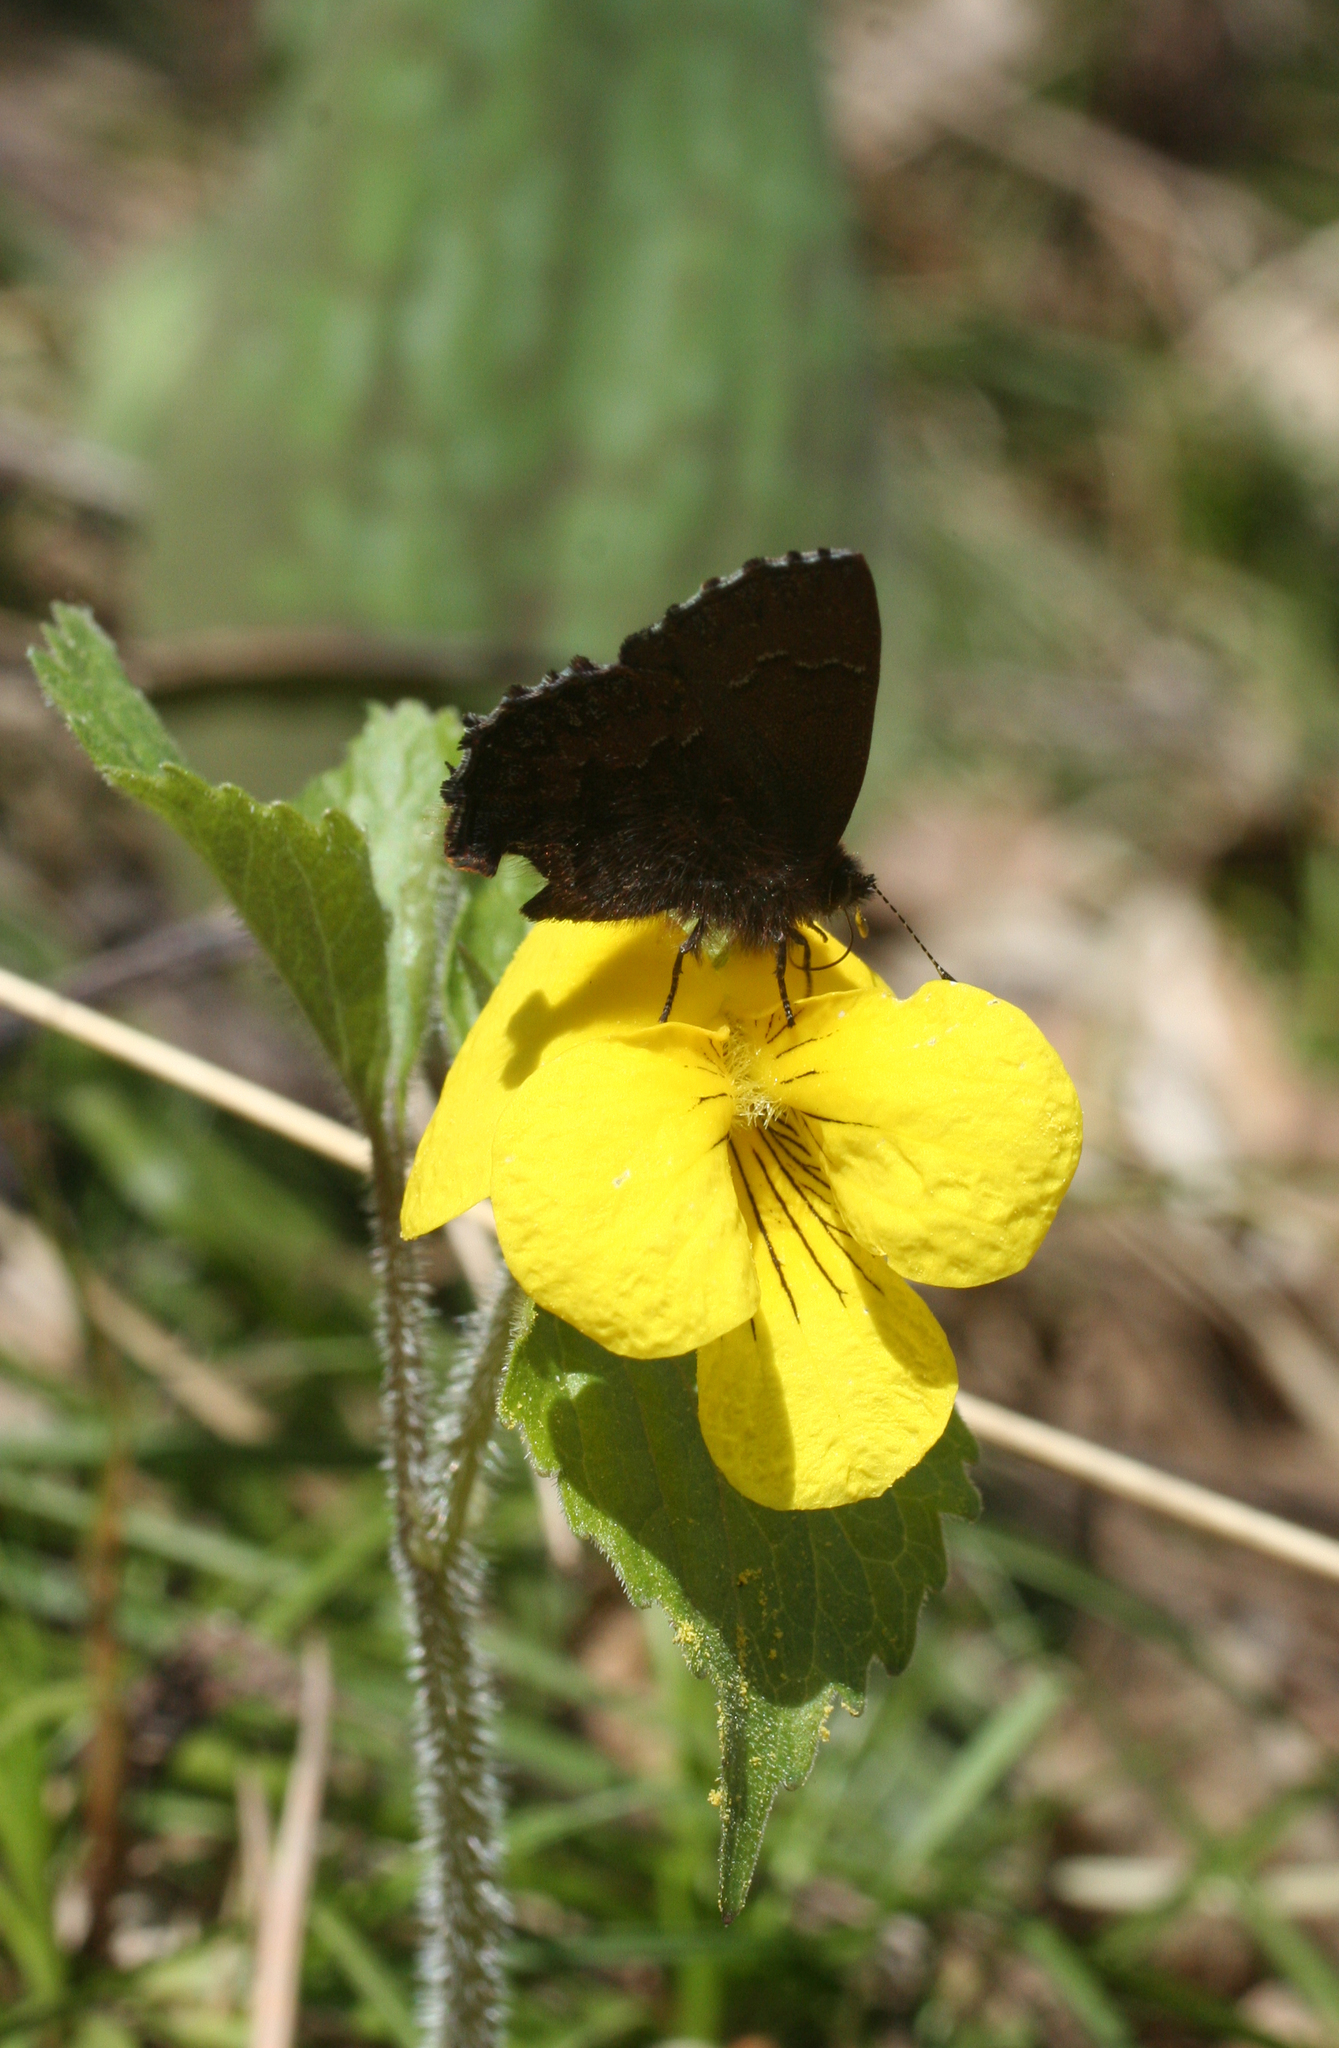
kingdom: Animalia
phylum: Arthropoda
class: Insecta
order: Lepidoptera
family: Lycaenidae
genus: Ginzia
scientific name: Ginzia Ahlbergia frivaldszkyi
